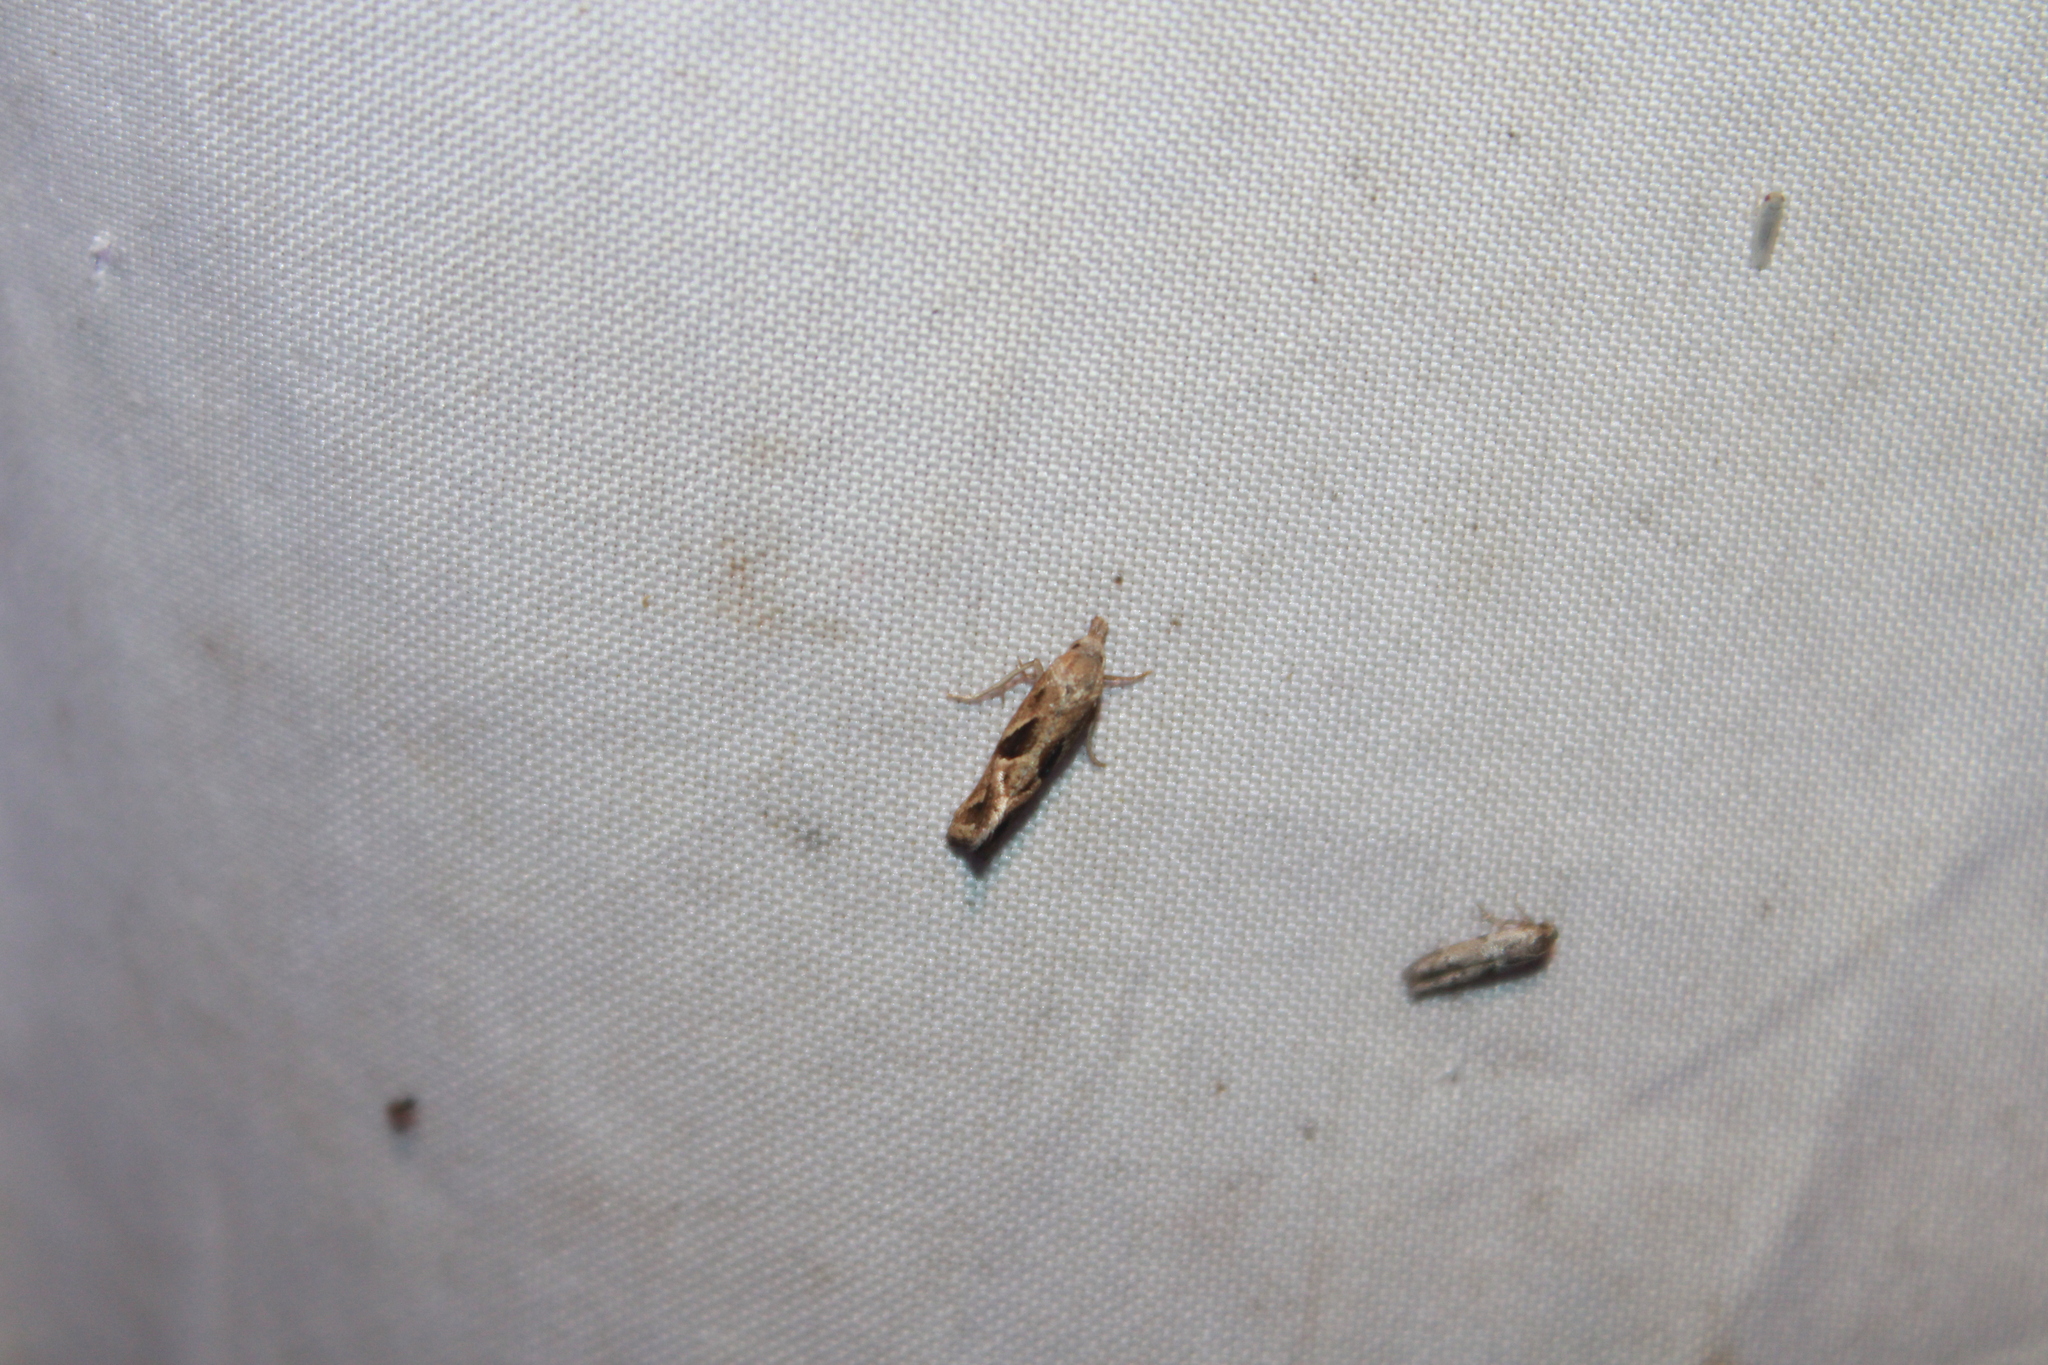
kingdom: Animalia
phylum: Arthropoda
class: Insecta
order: Lepidoptera
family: Tortricidae
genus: Eugnosta
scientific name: Eugnosta bimaculana
